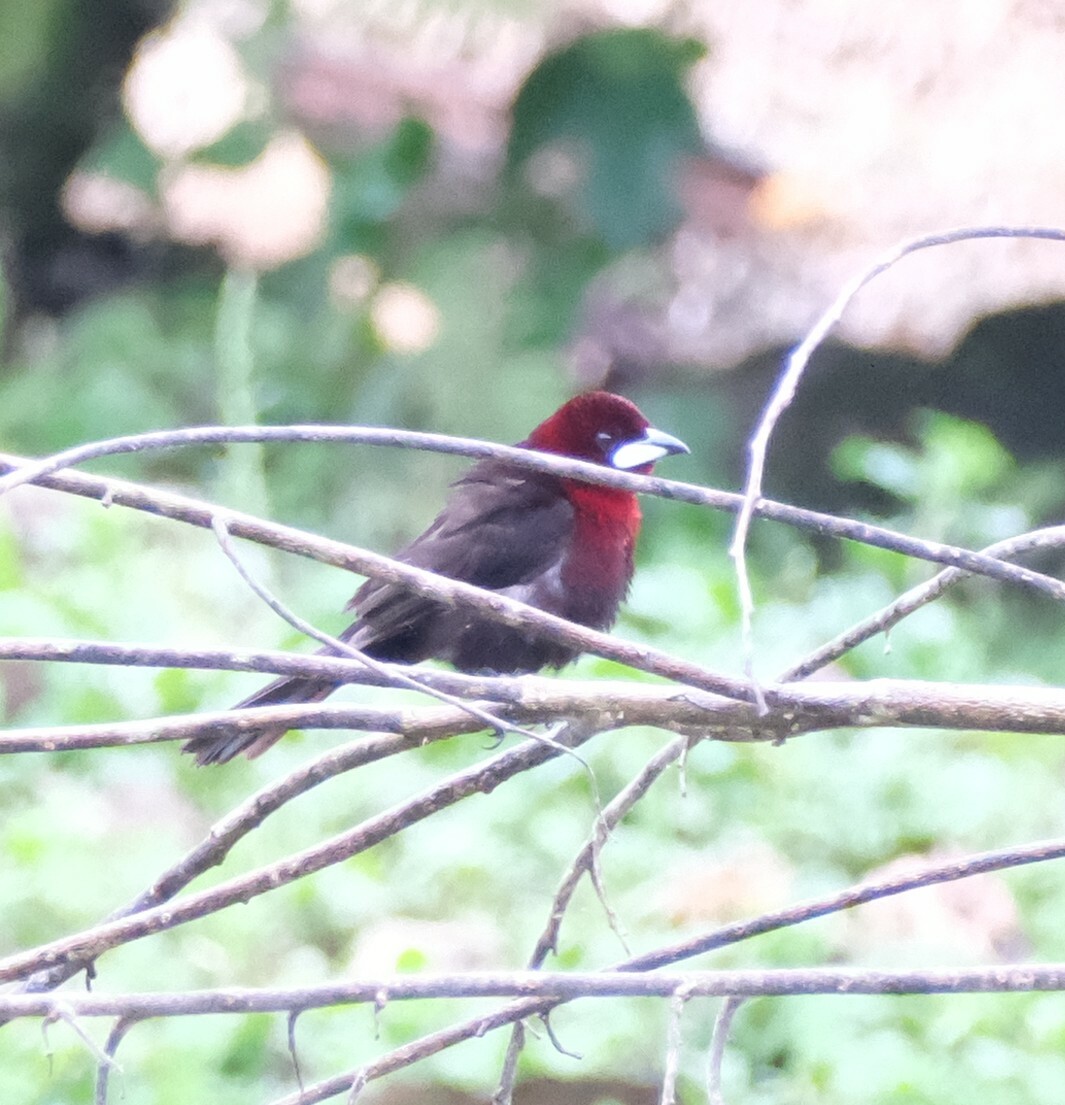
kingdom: Animalia
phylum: Chordata
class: Aves
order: Passeriformes
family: Thraupidae
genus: Ramphocelus
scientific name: Ramphocelus carbo
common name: Silver-beaked tanager
